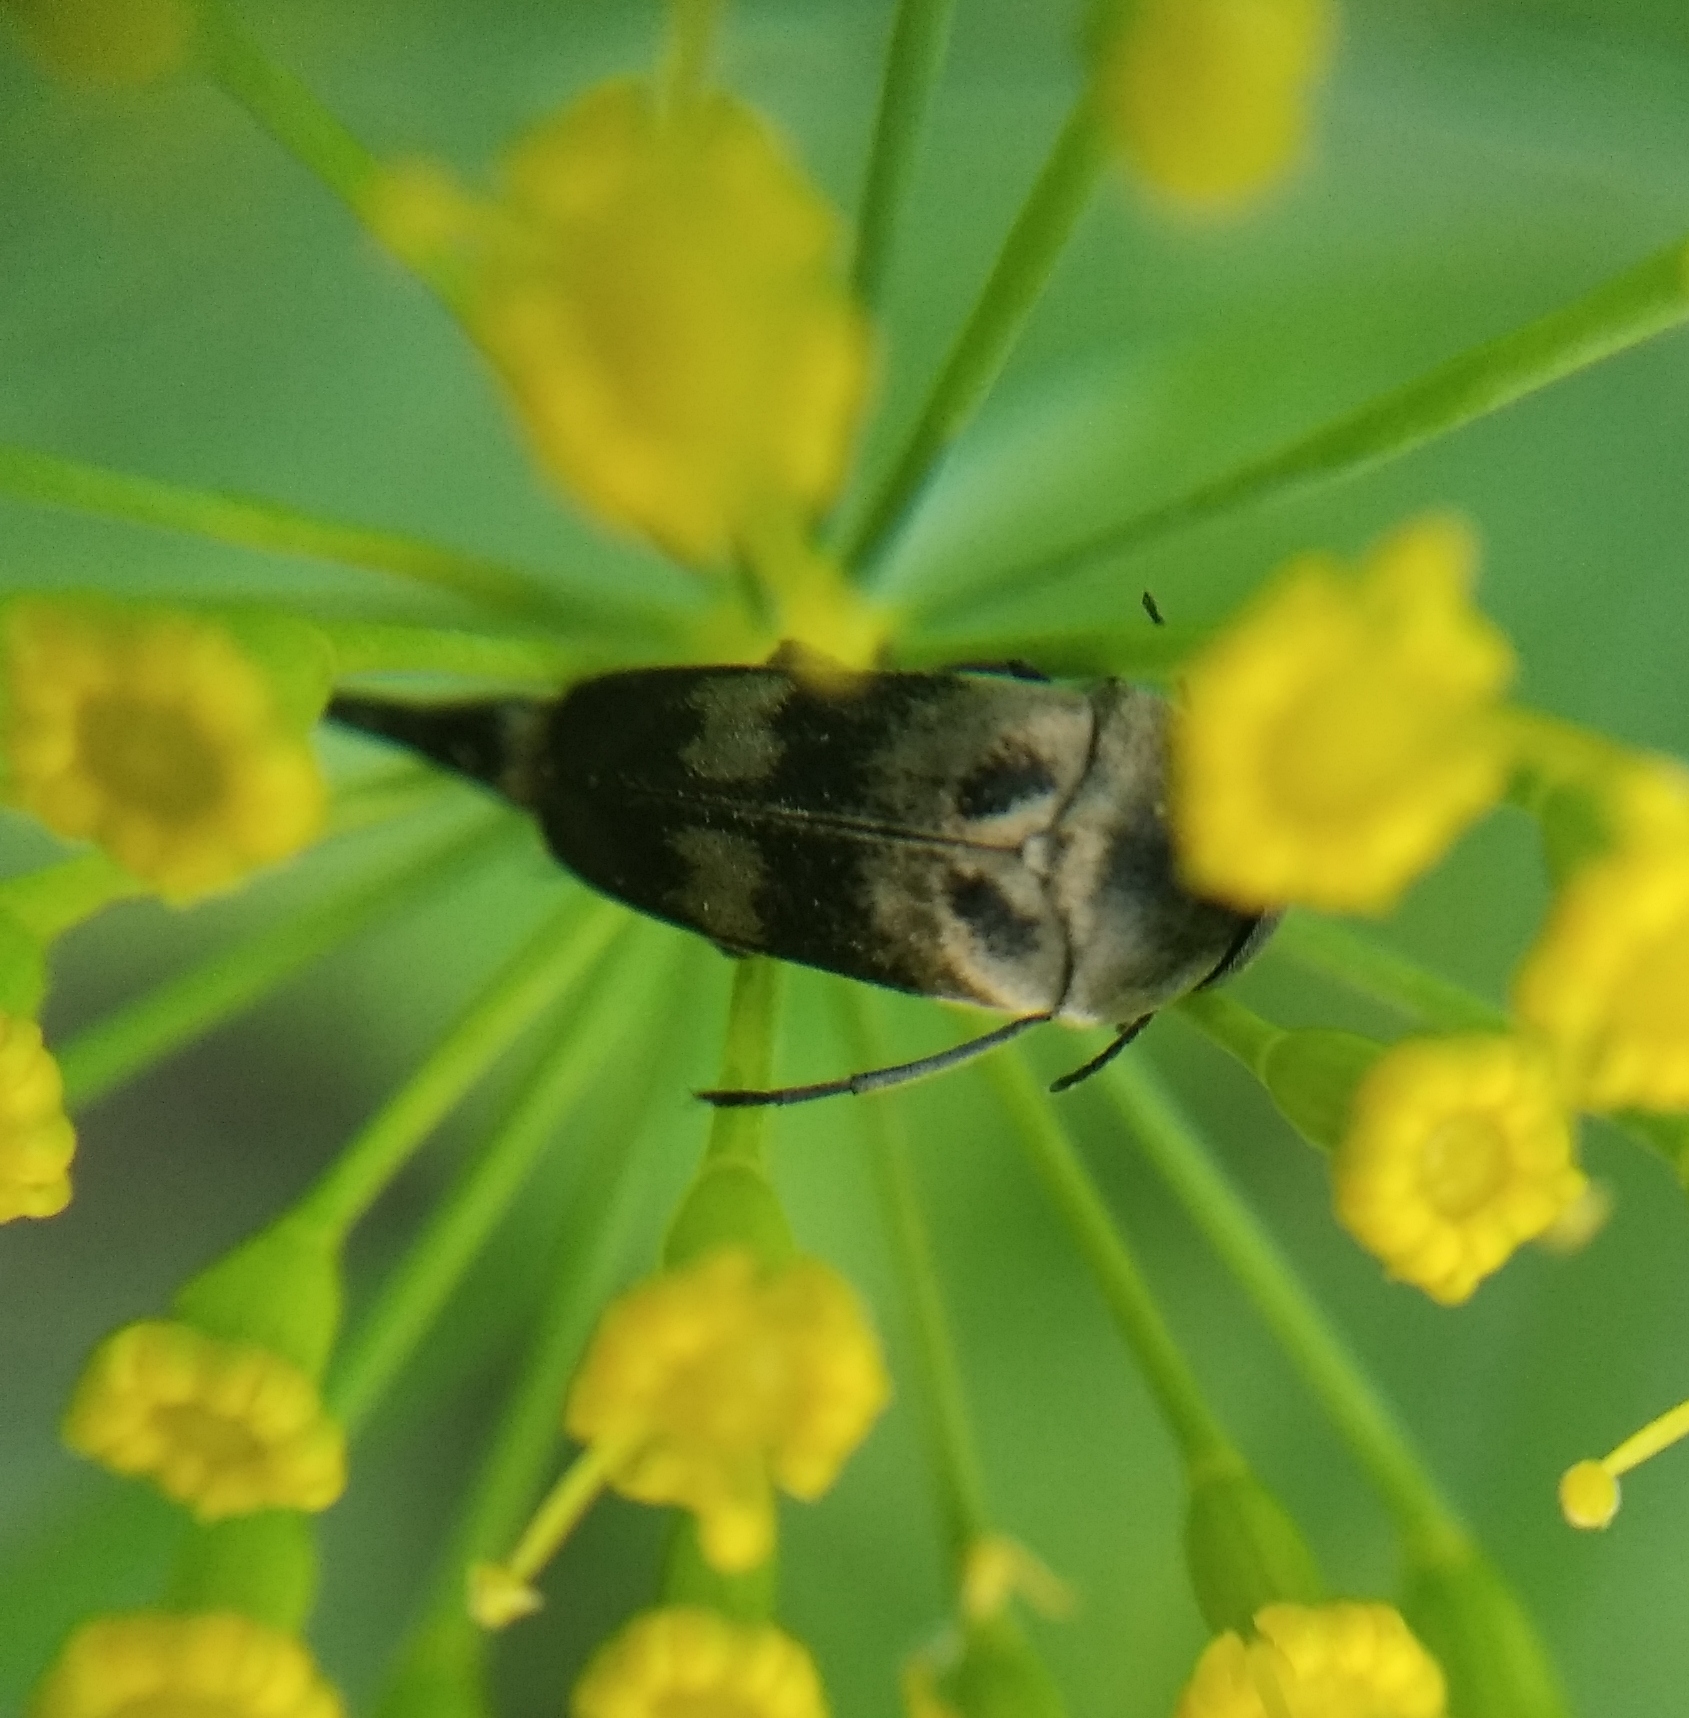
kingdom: Animalia
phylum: Arthropoda
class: Insecta
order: Coleoptera
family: Mordellidae
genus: Variimorda
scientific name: Variimorda villosa
